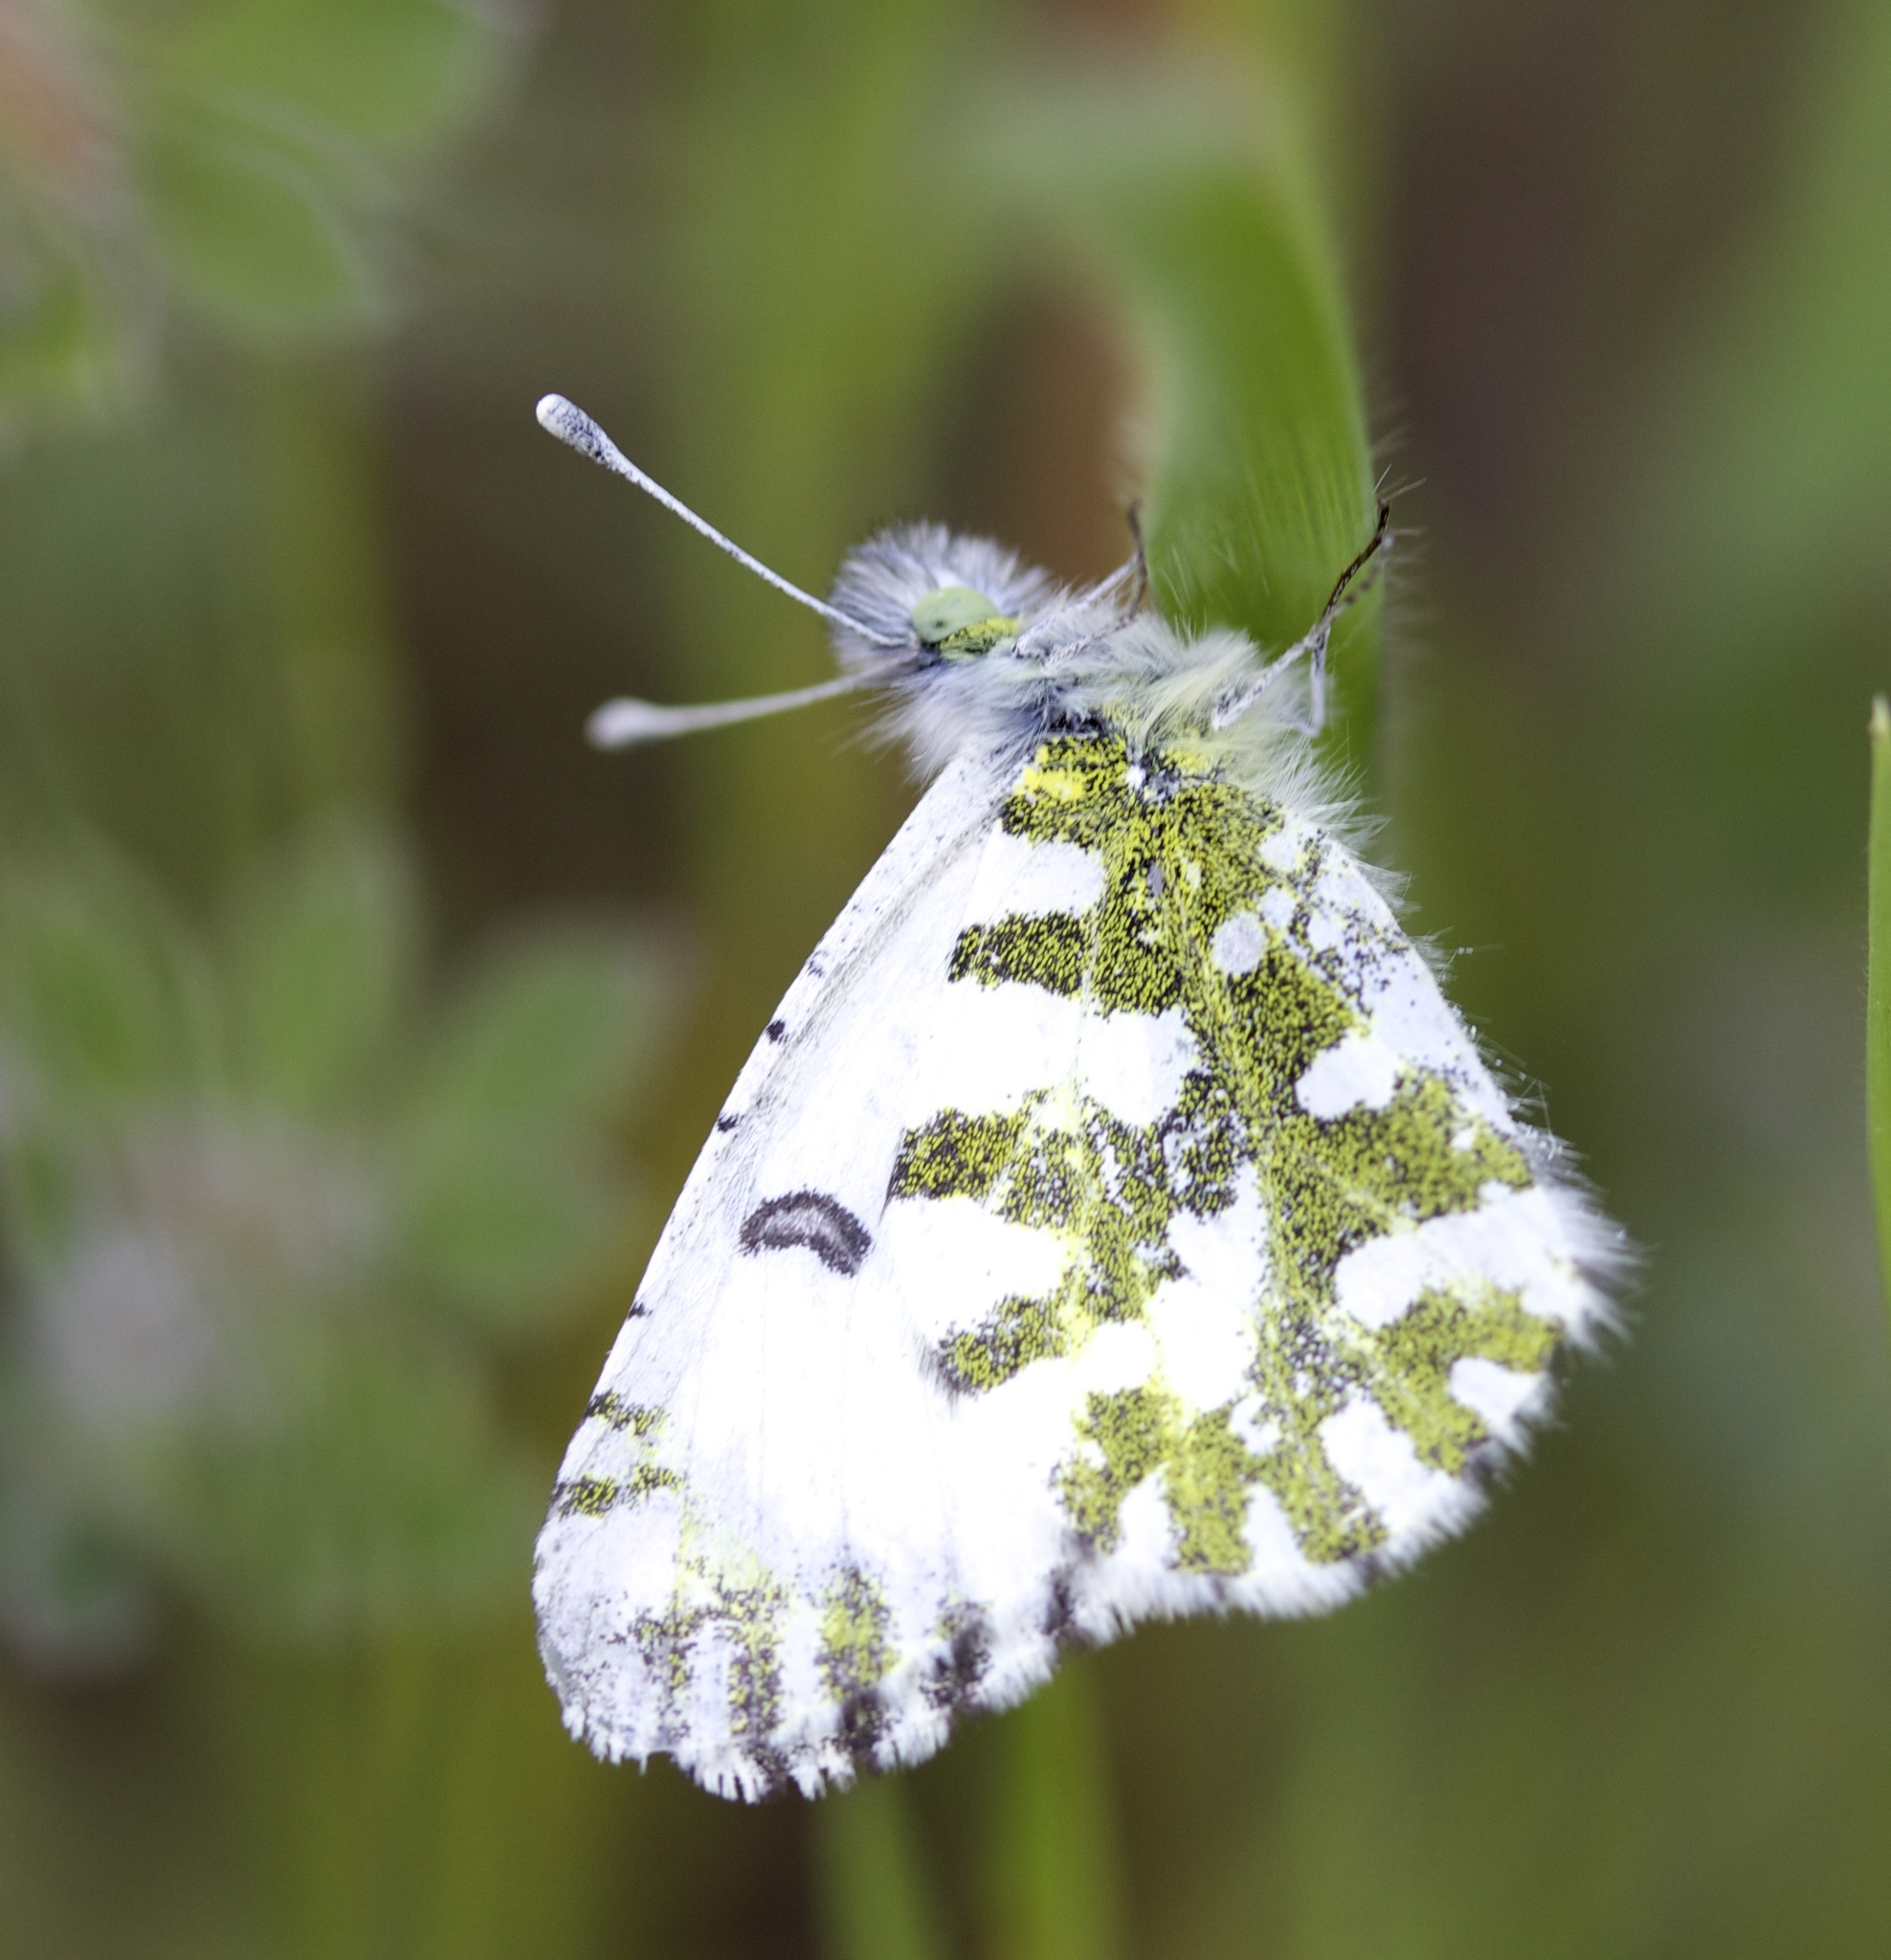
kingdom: Animalia
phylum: Arthropoda
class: Insecta
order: Lepidoptera
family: Pieridae
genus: Euchloe
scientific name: Euchloe hyantis
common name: California marble
